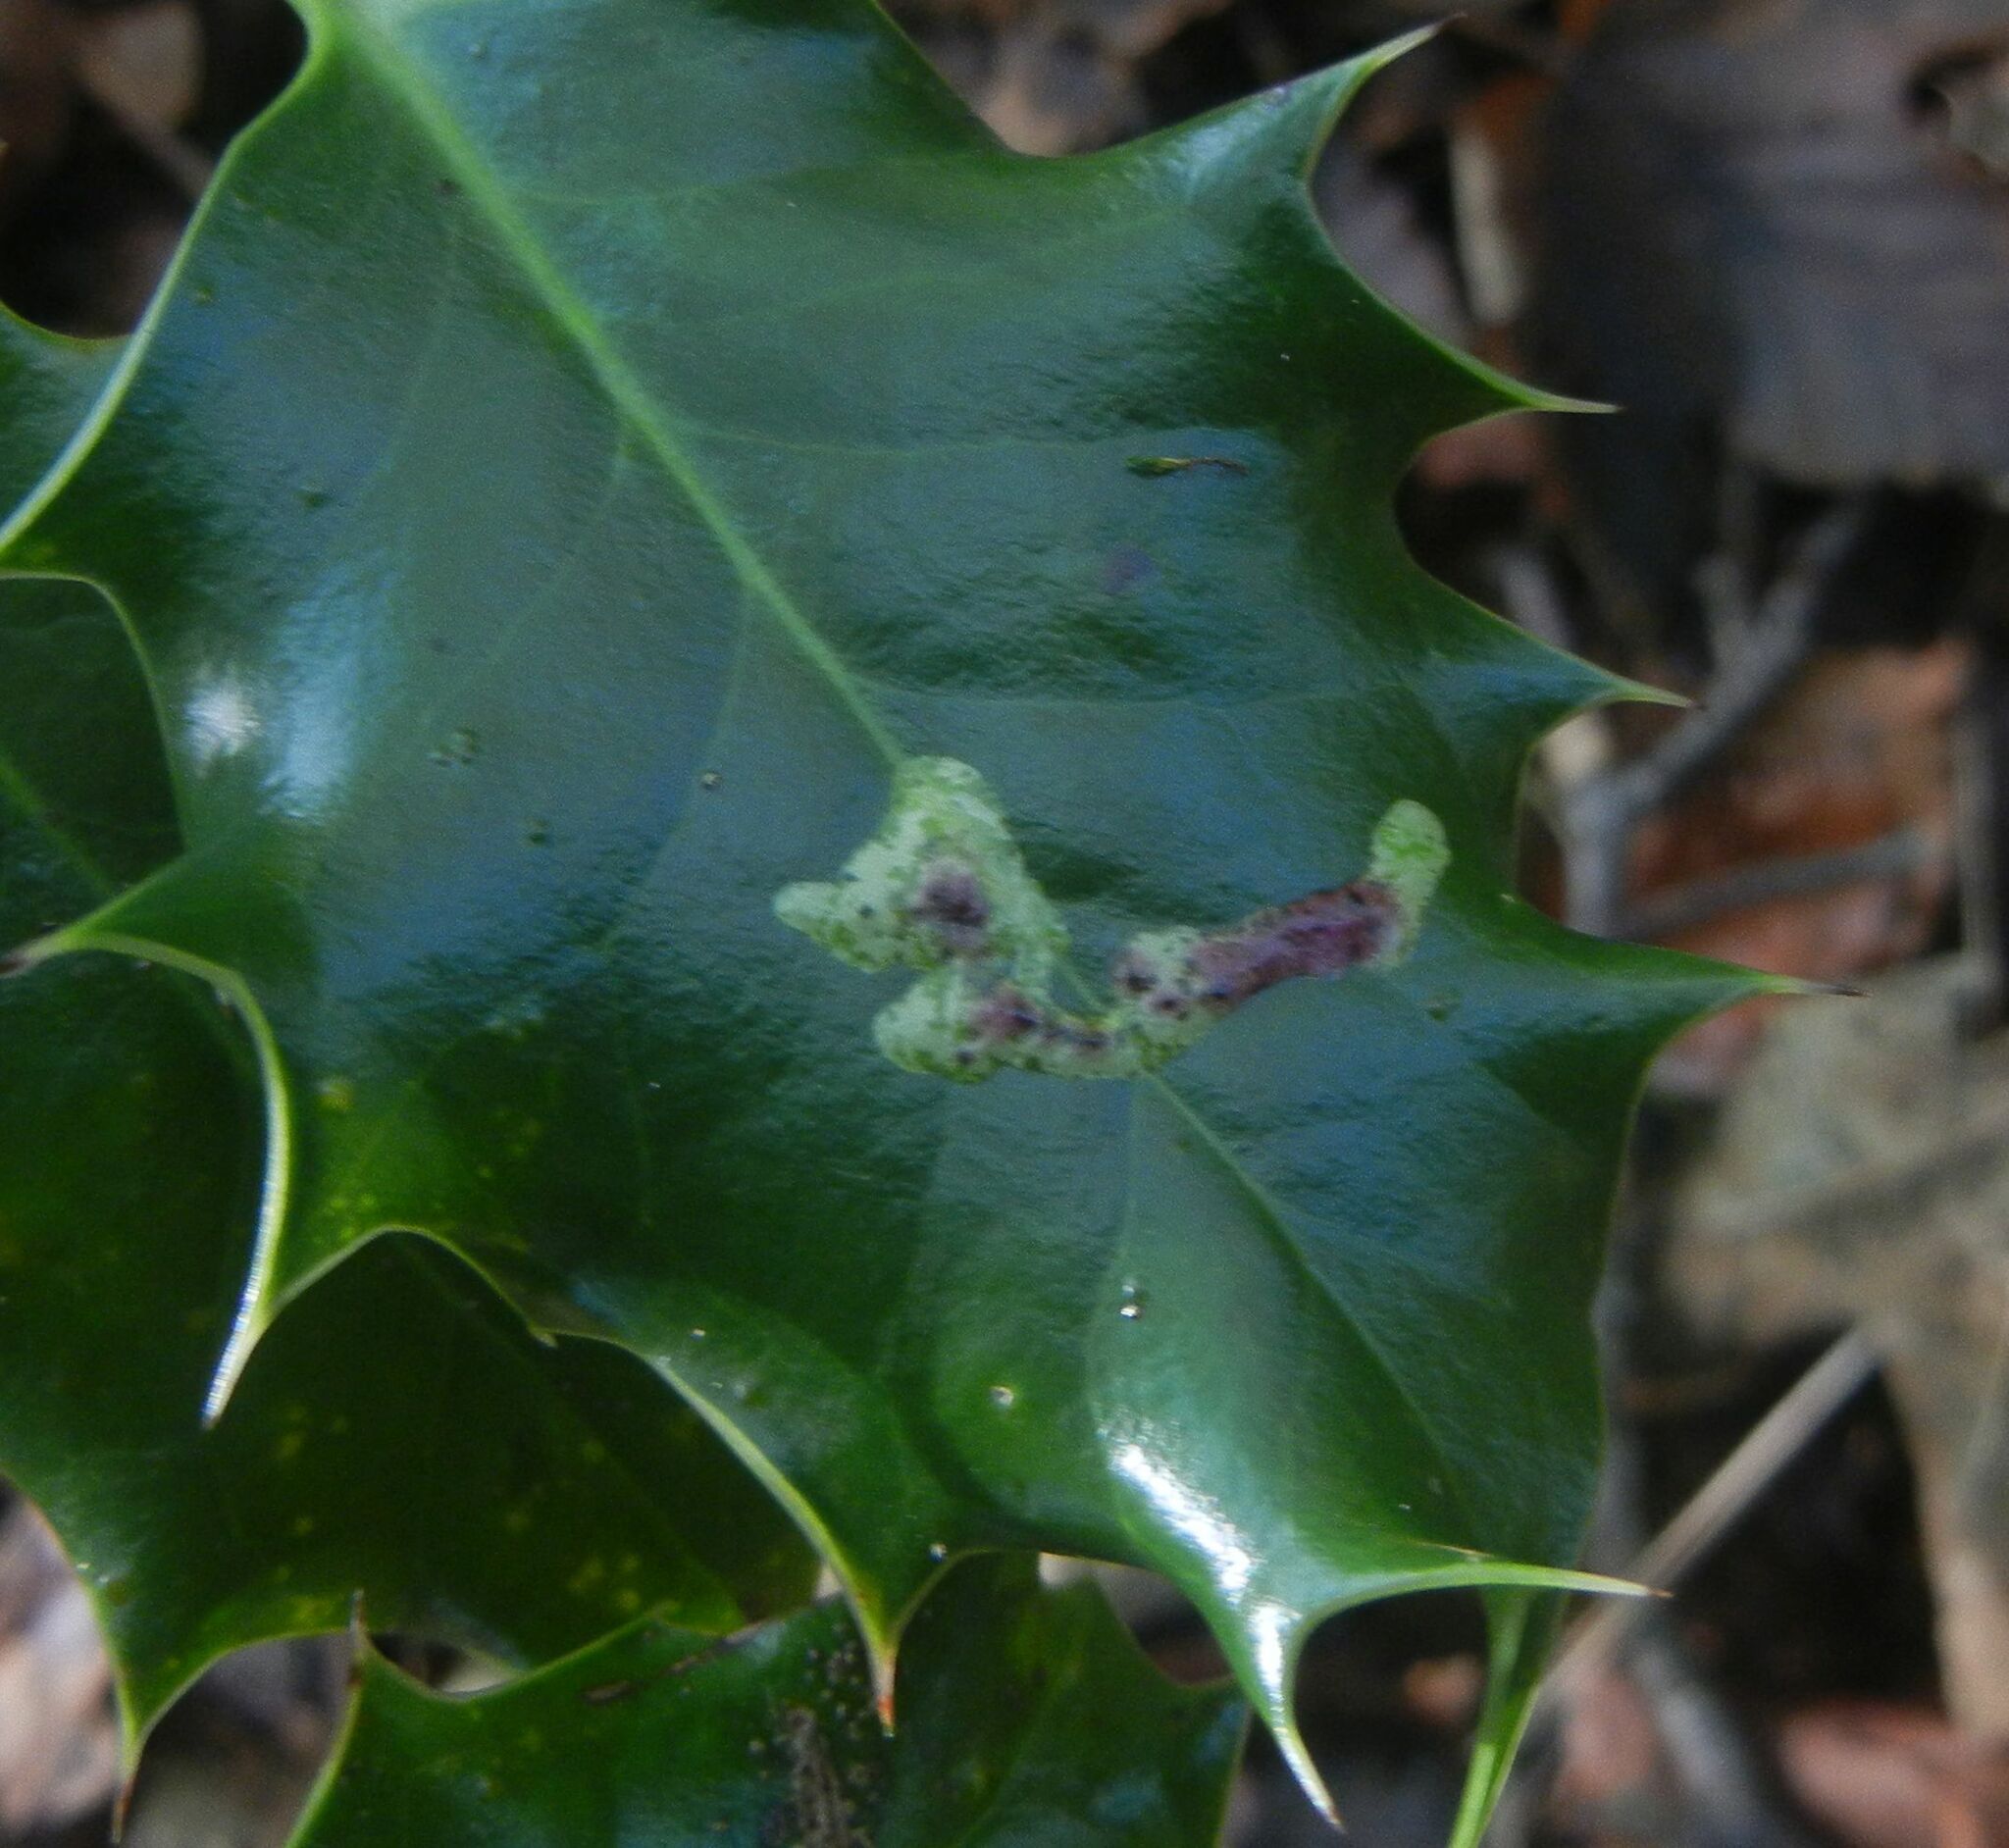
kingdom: Animalia
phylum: Arthropoda
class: Insecta
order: Diptera
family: Agromyzidae
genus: Phytomyza
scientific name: Phytomyza ilicis
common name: Holly leafminer
